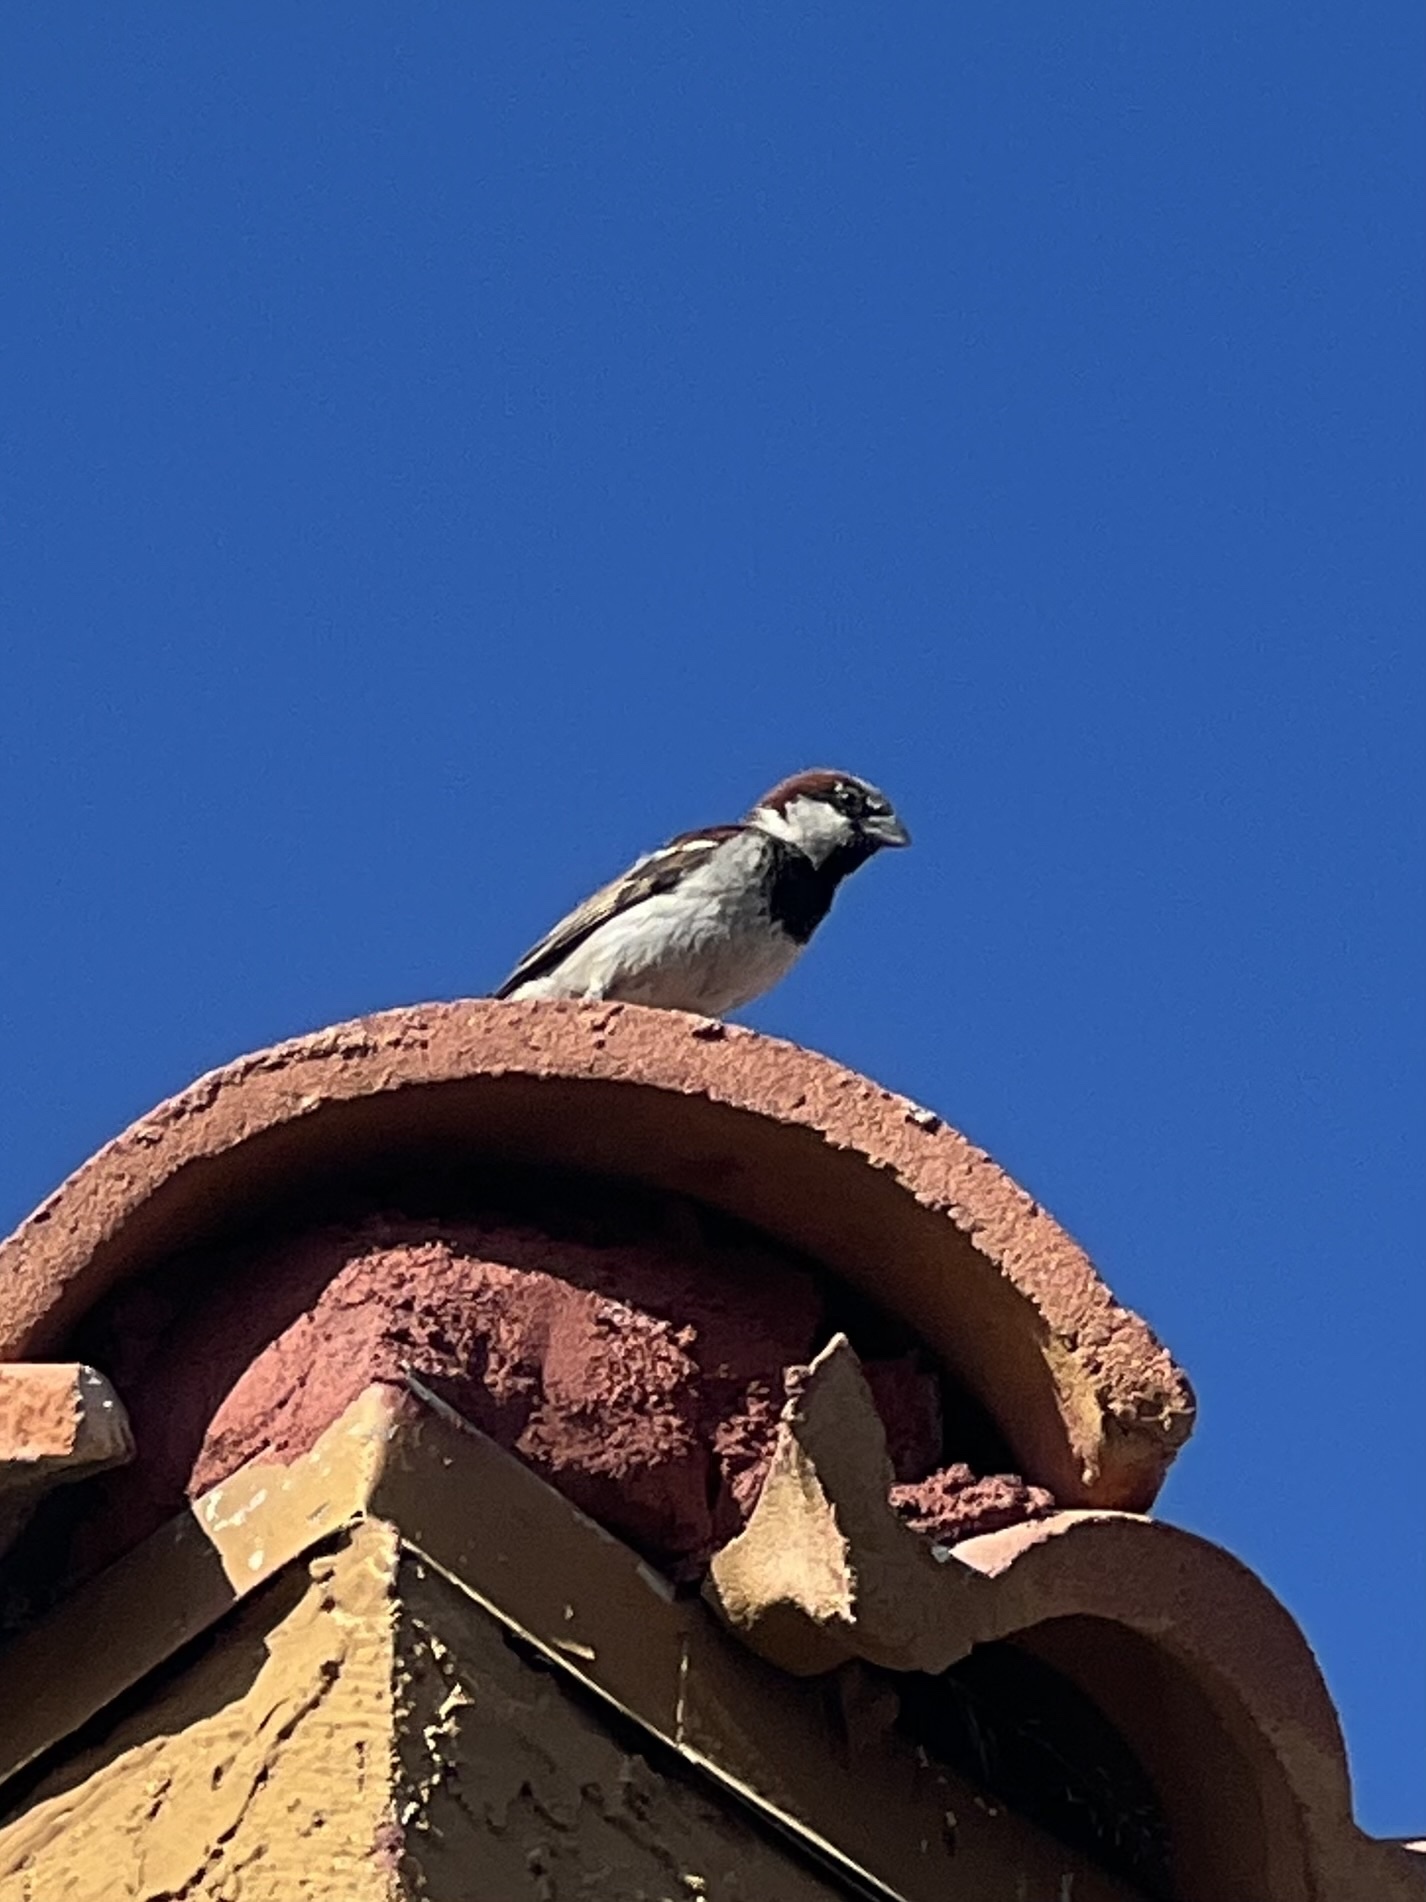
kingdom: Animalia
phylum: Chordata
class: Aves
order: Passeriformes
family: Passeridae
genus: Passer
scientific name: Passer domesticus
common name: House sparrow
